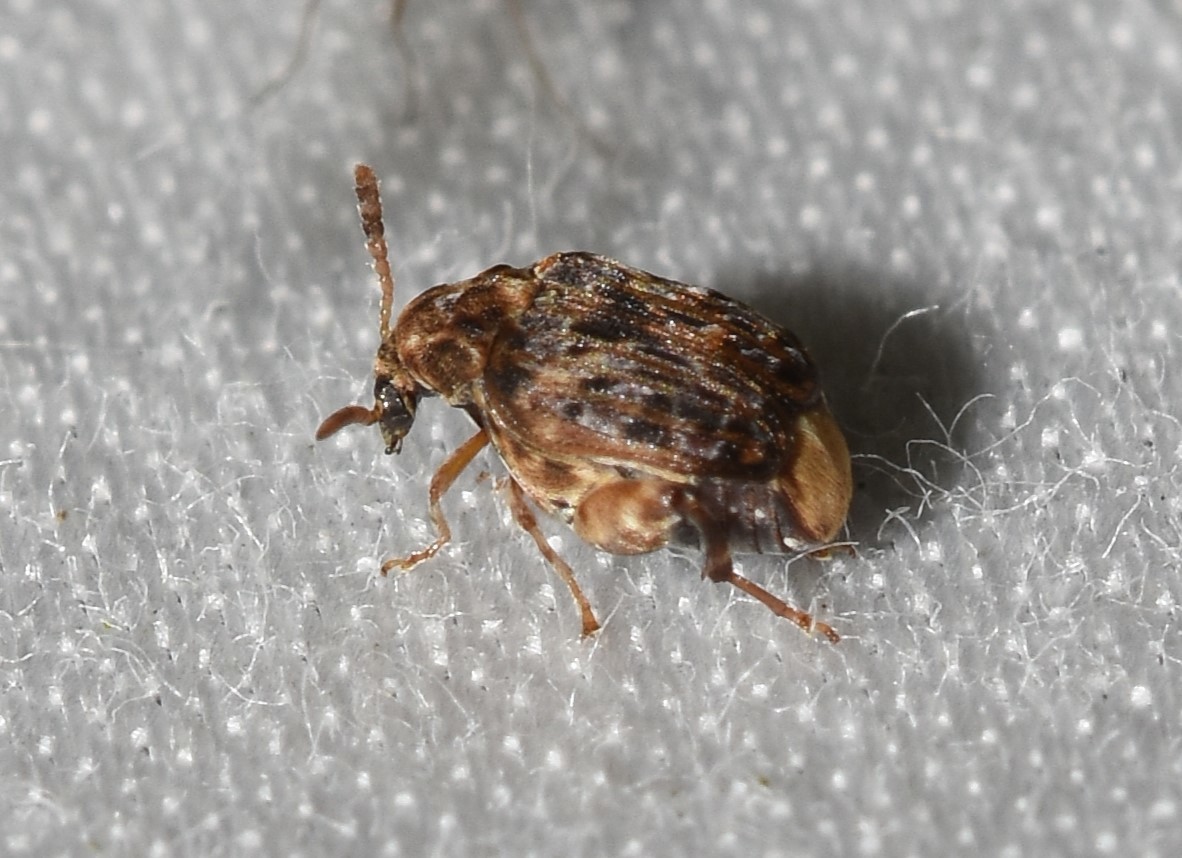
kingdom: Animalia
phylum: Arthropoda
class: Insecta
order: Coleoptera
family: Chrysomelidae
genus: Gibbobruchus
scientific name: Gibbobruchus mimus
